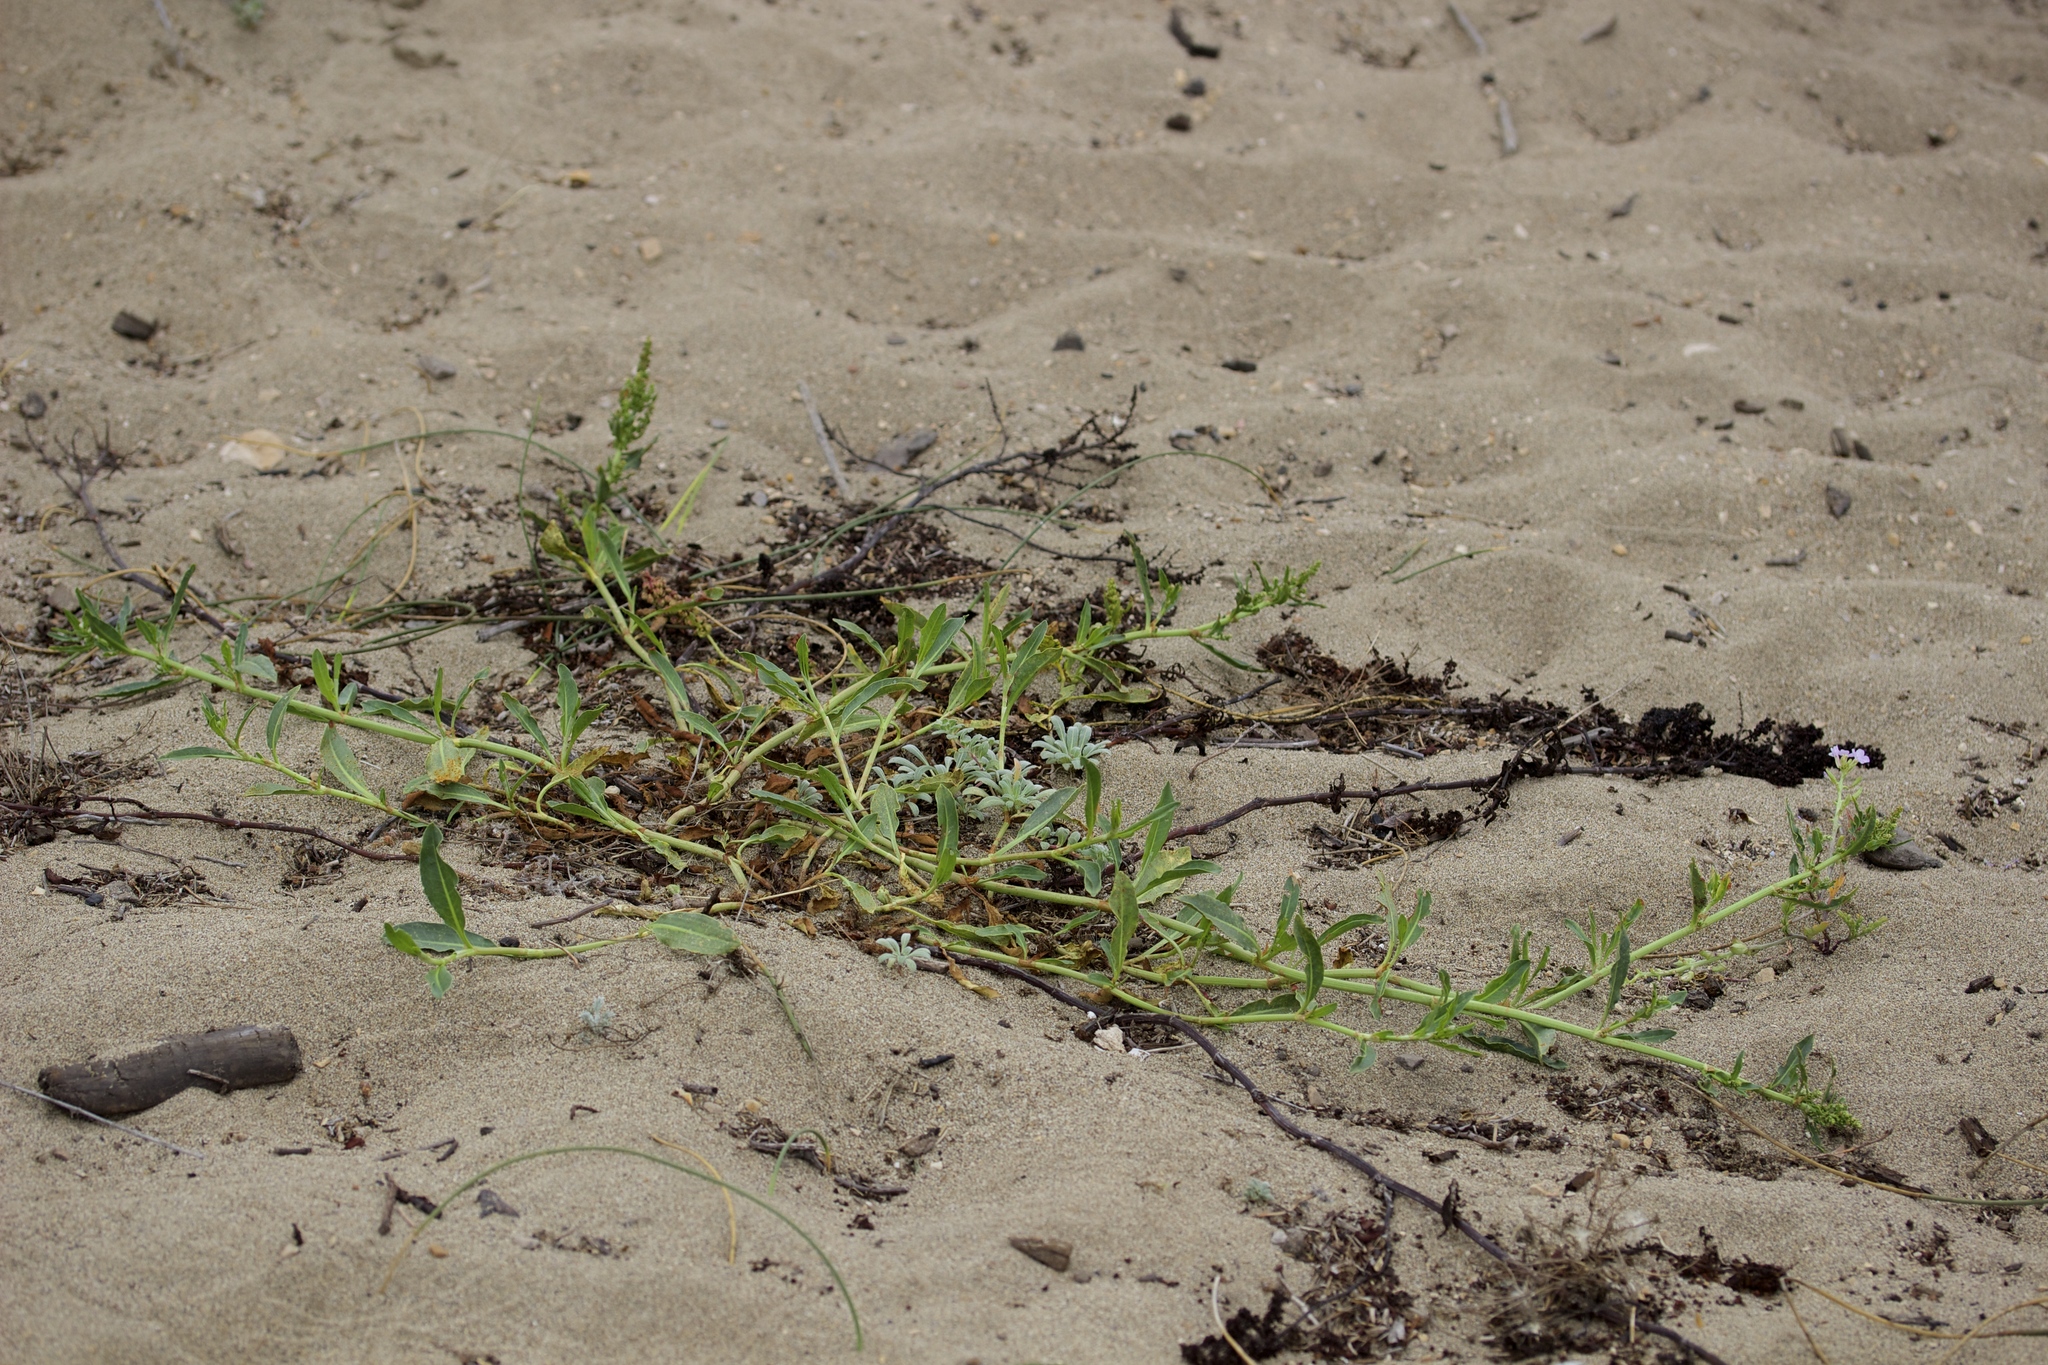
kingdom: Plantae
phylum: Tracheophyta
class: Magnoliopsida
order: Caryophyllales
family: Polygonaceae
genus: Rumex
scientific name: Rumex salicifolius
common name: Willow-leaved dock
